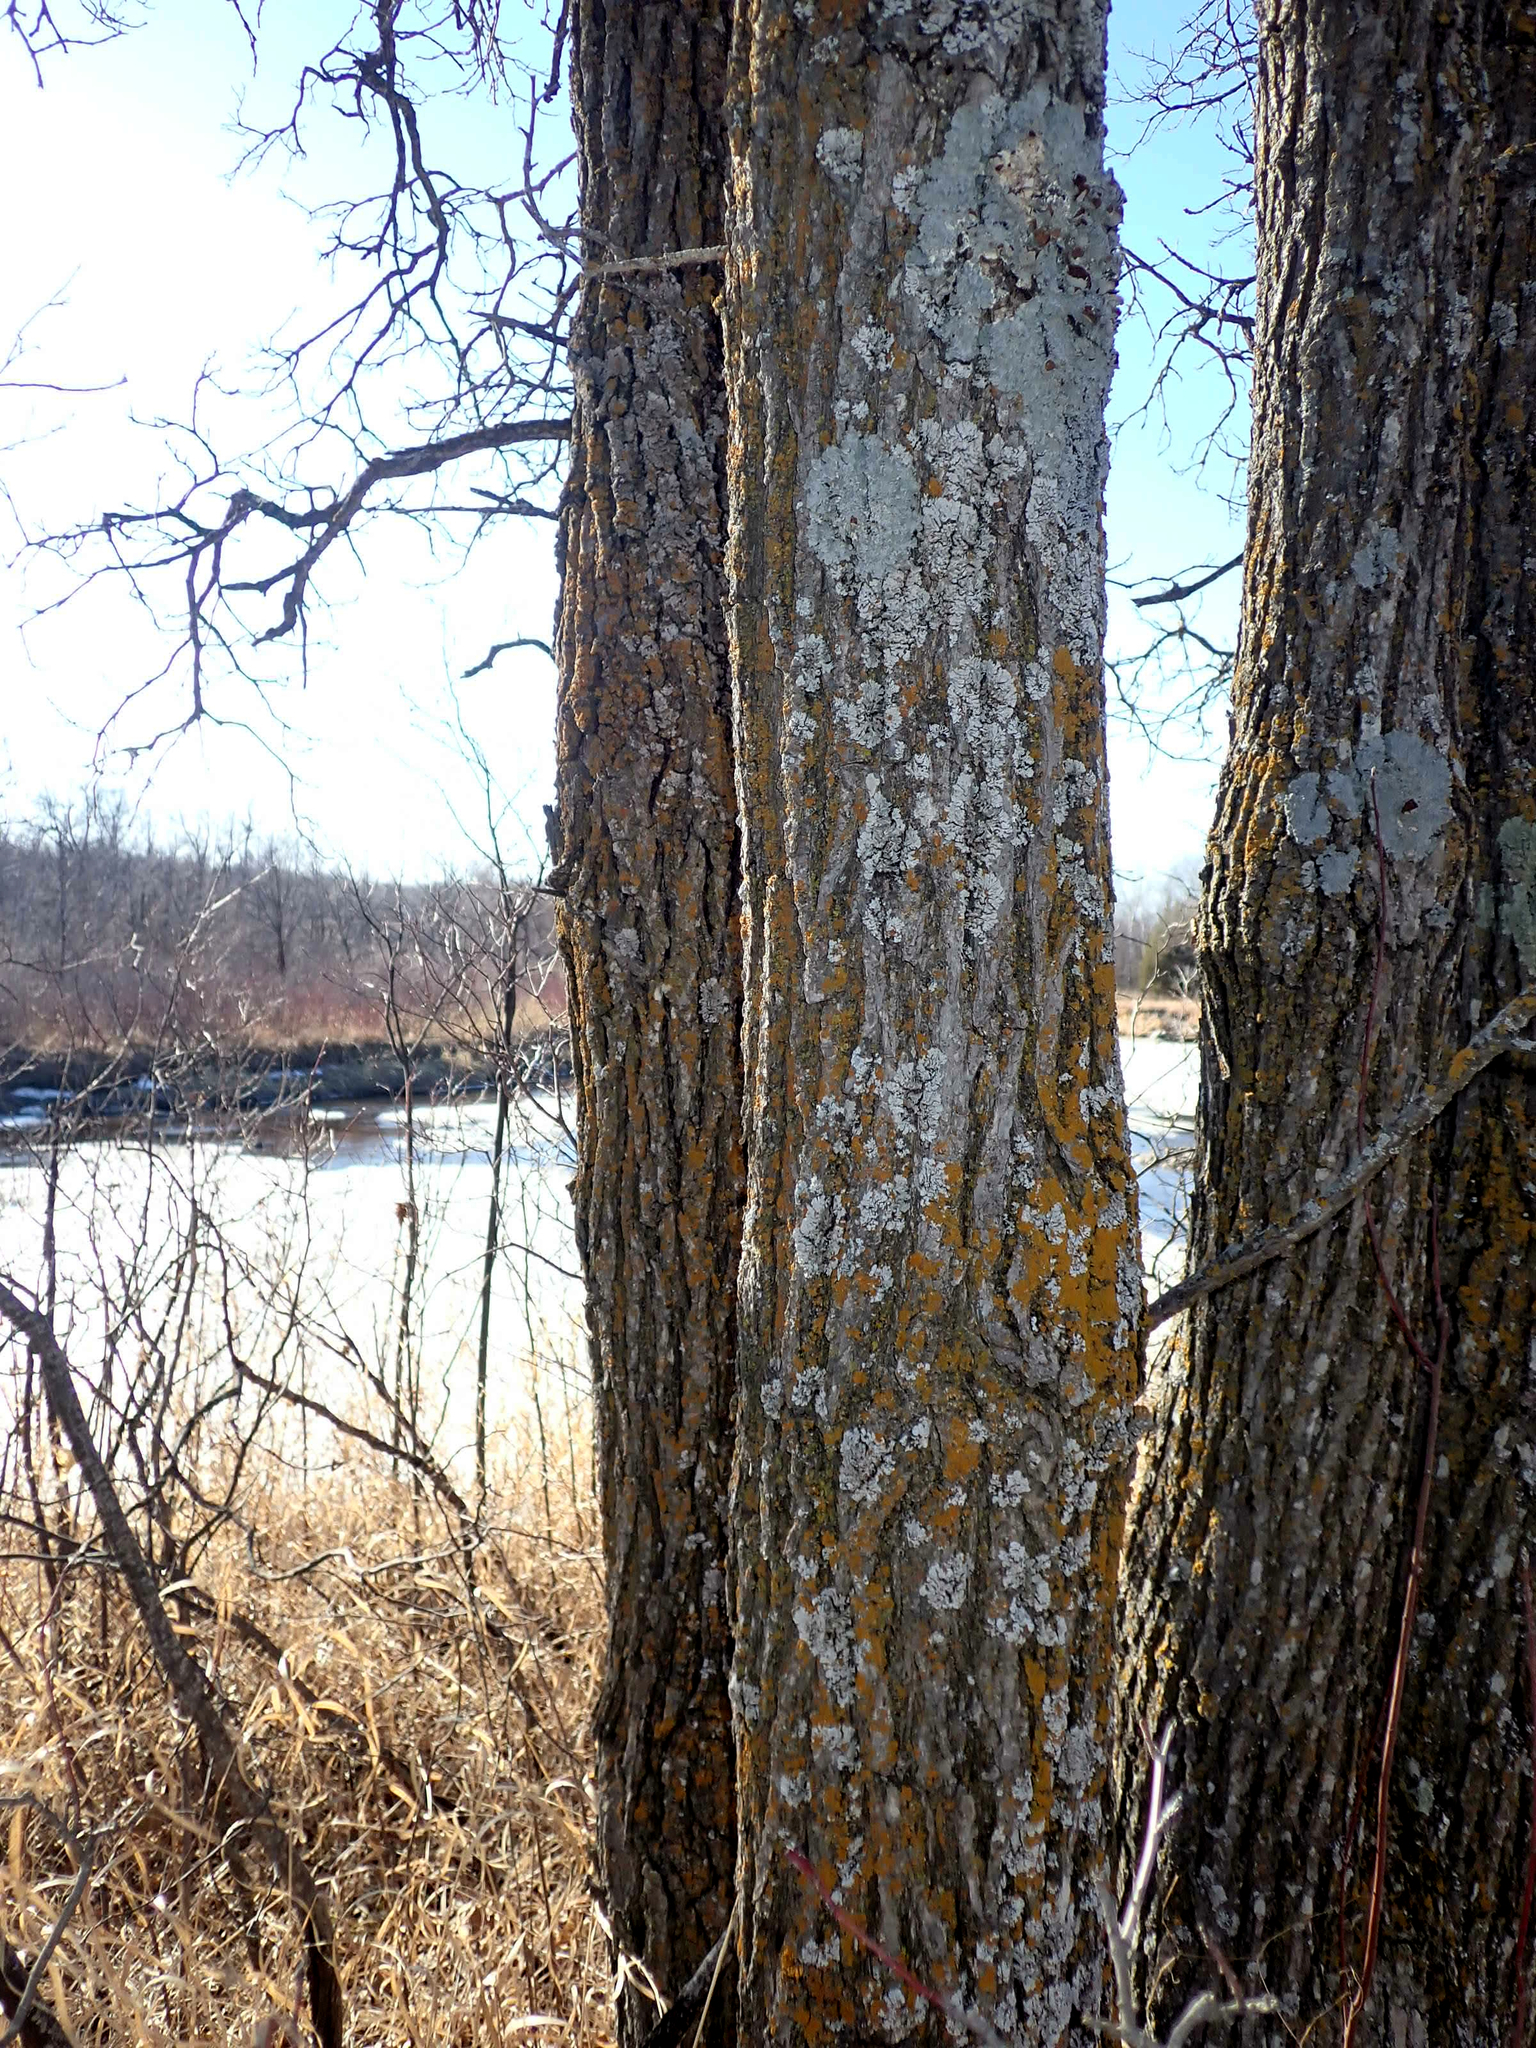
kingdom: Plantae
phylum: Tracheophyta
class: Magnoliopsida
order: Fagales
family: Fagaceae
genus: Quercus
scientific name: Quercus macrocarpa
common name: Bur oak
